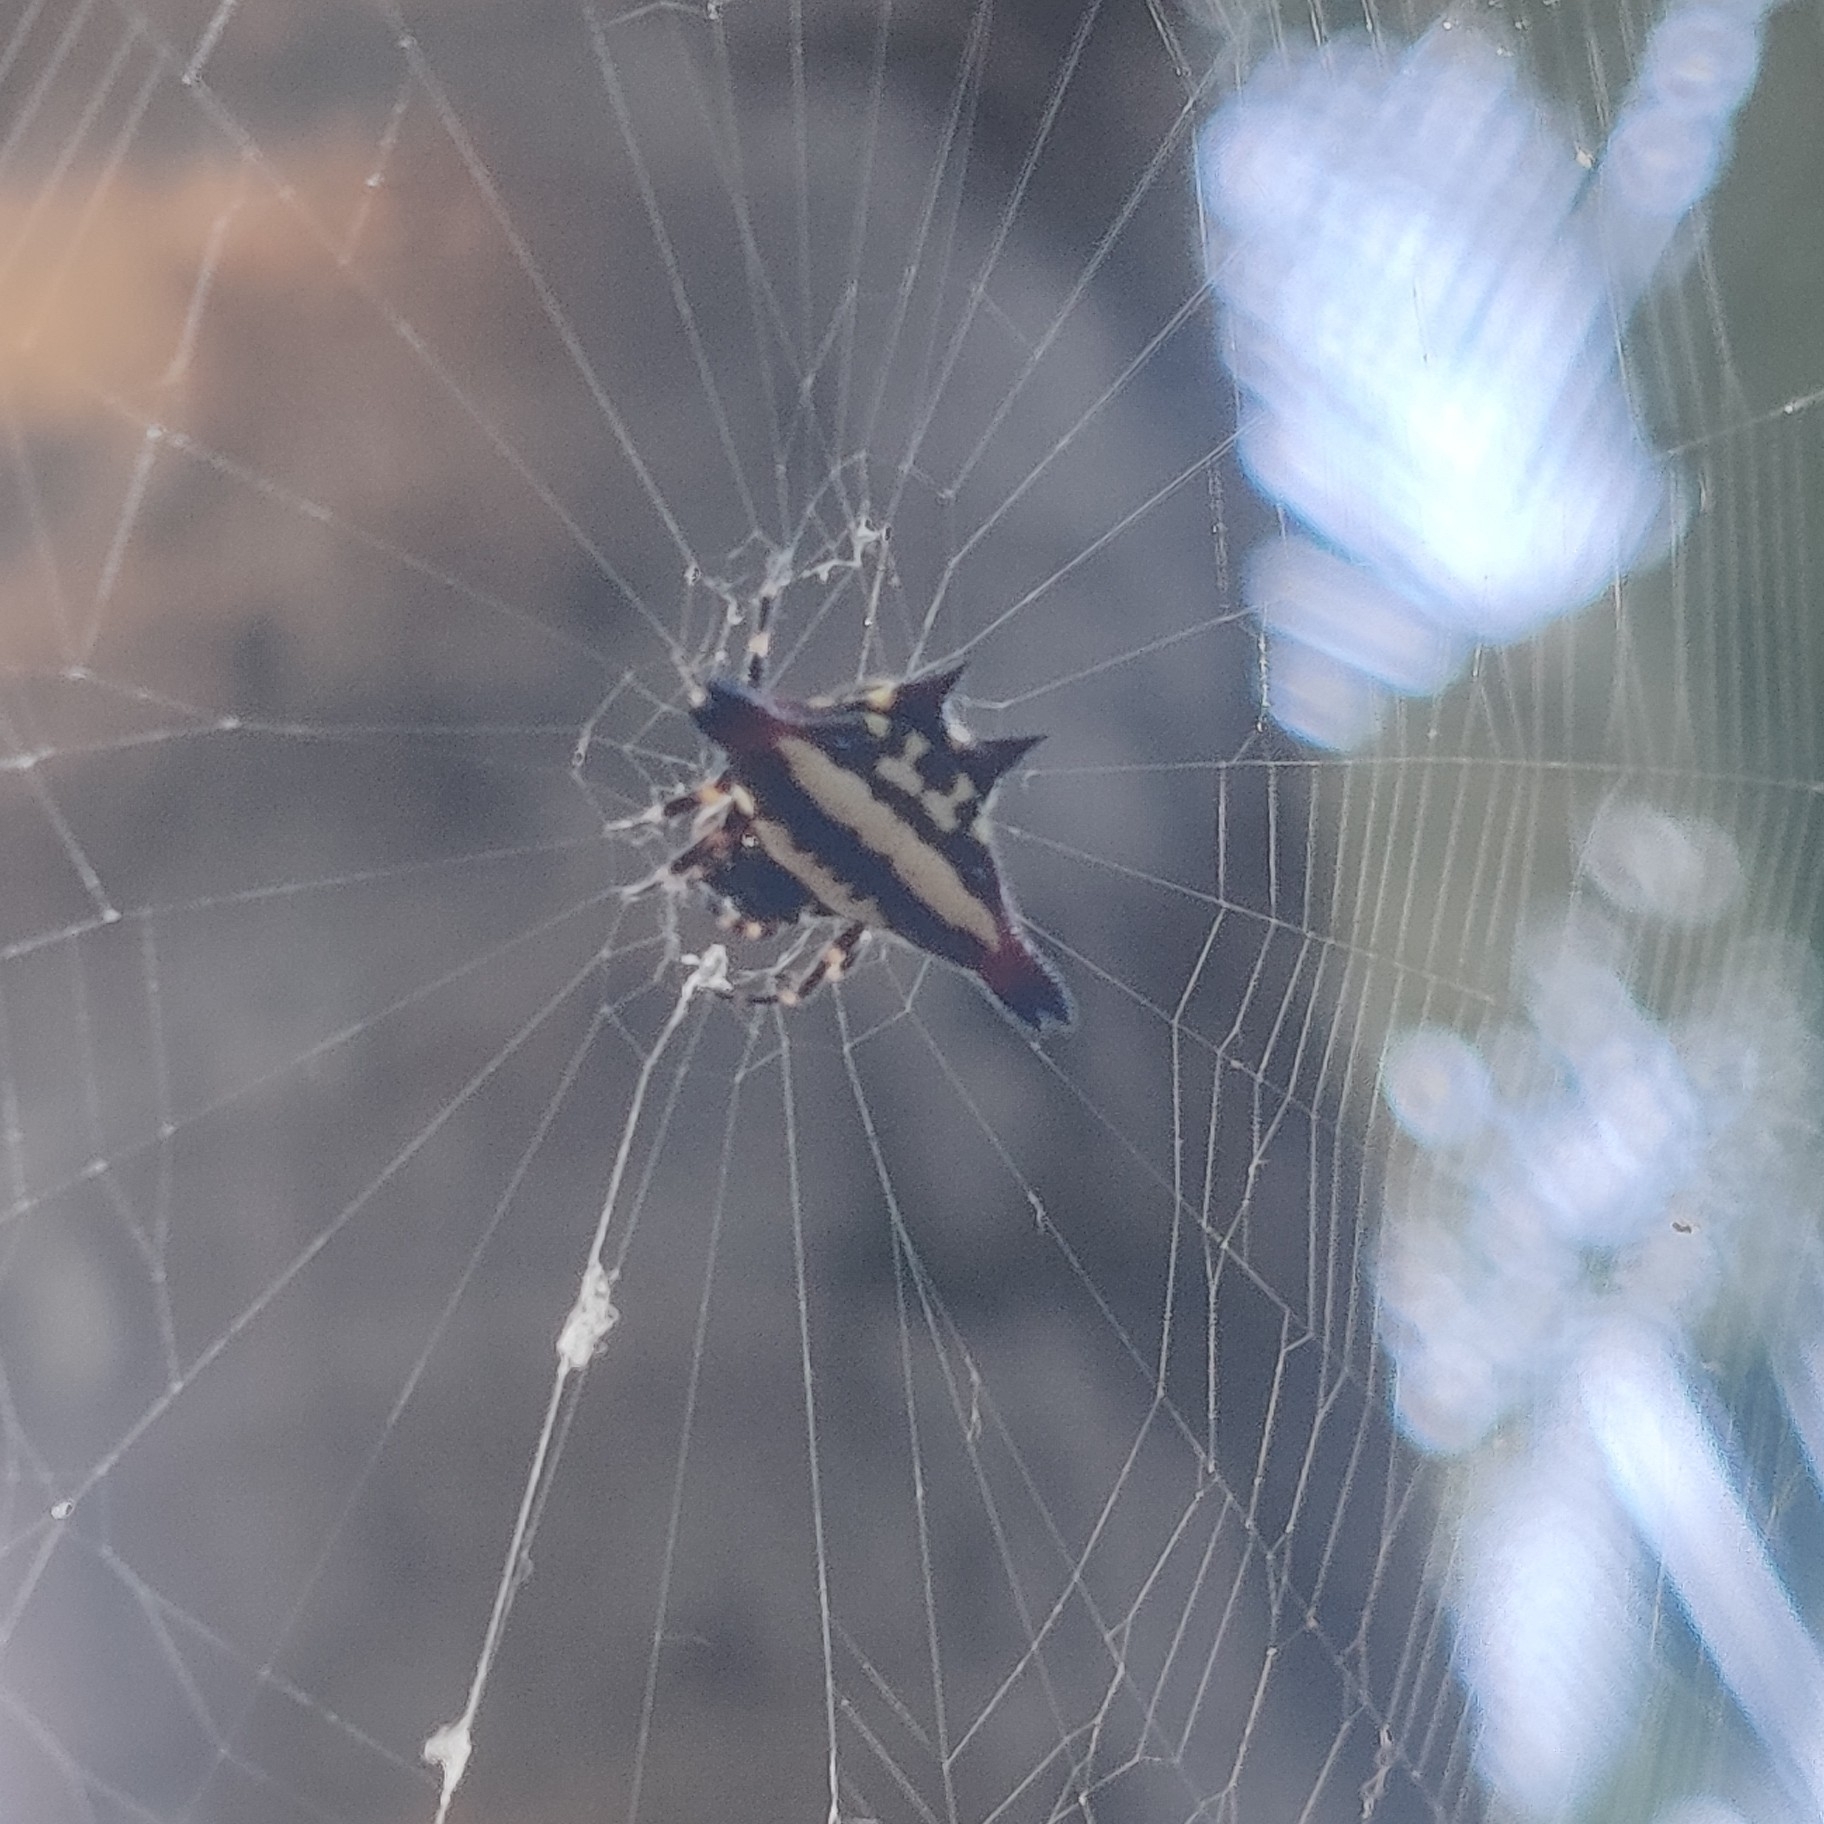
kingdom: Animalia
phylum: Arthropoda
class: Arachnida
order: Araneae
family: Araneidae
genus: Gasteracantha
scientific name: Gasteracantha geminata
